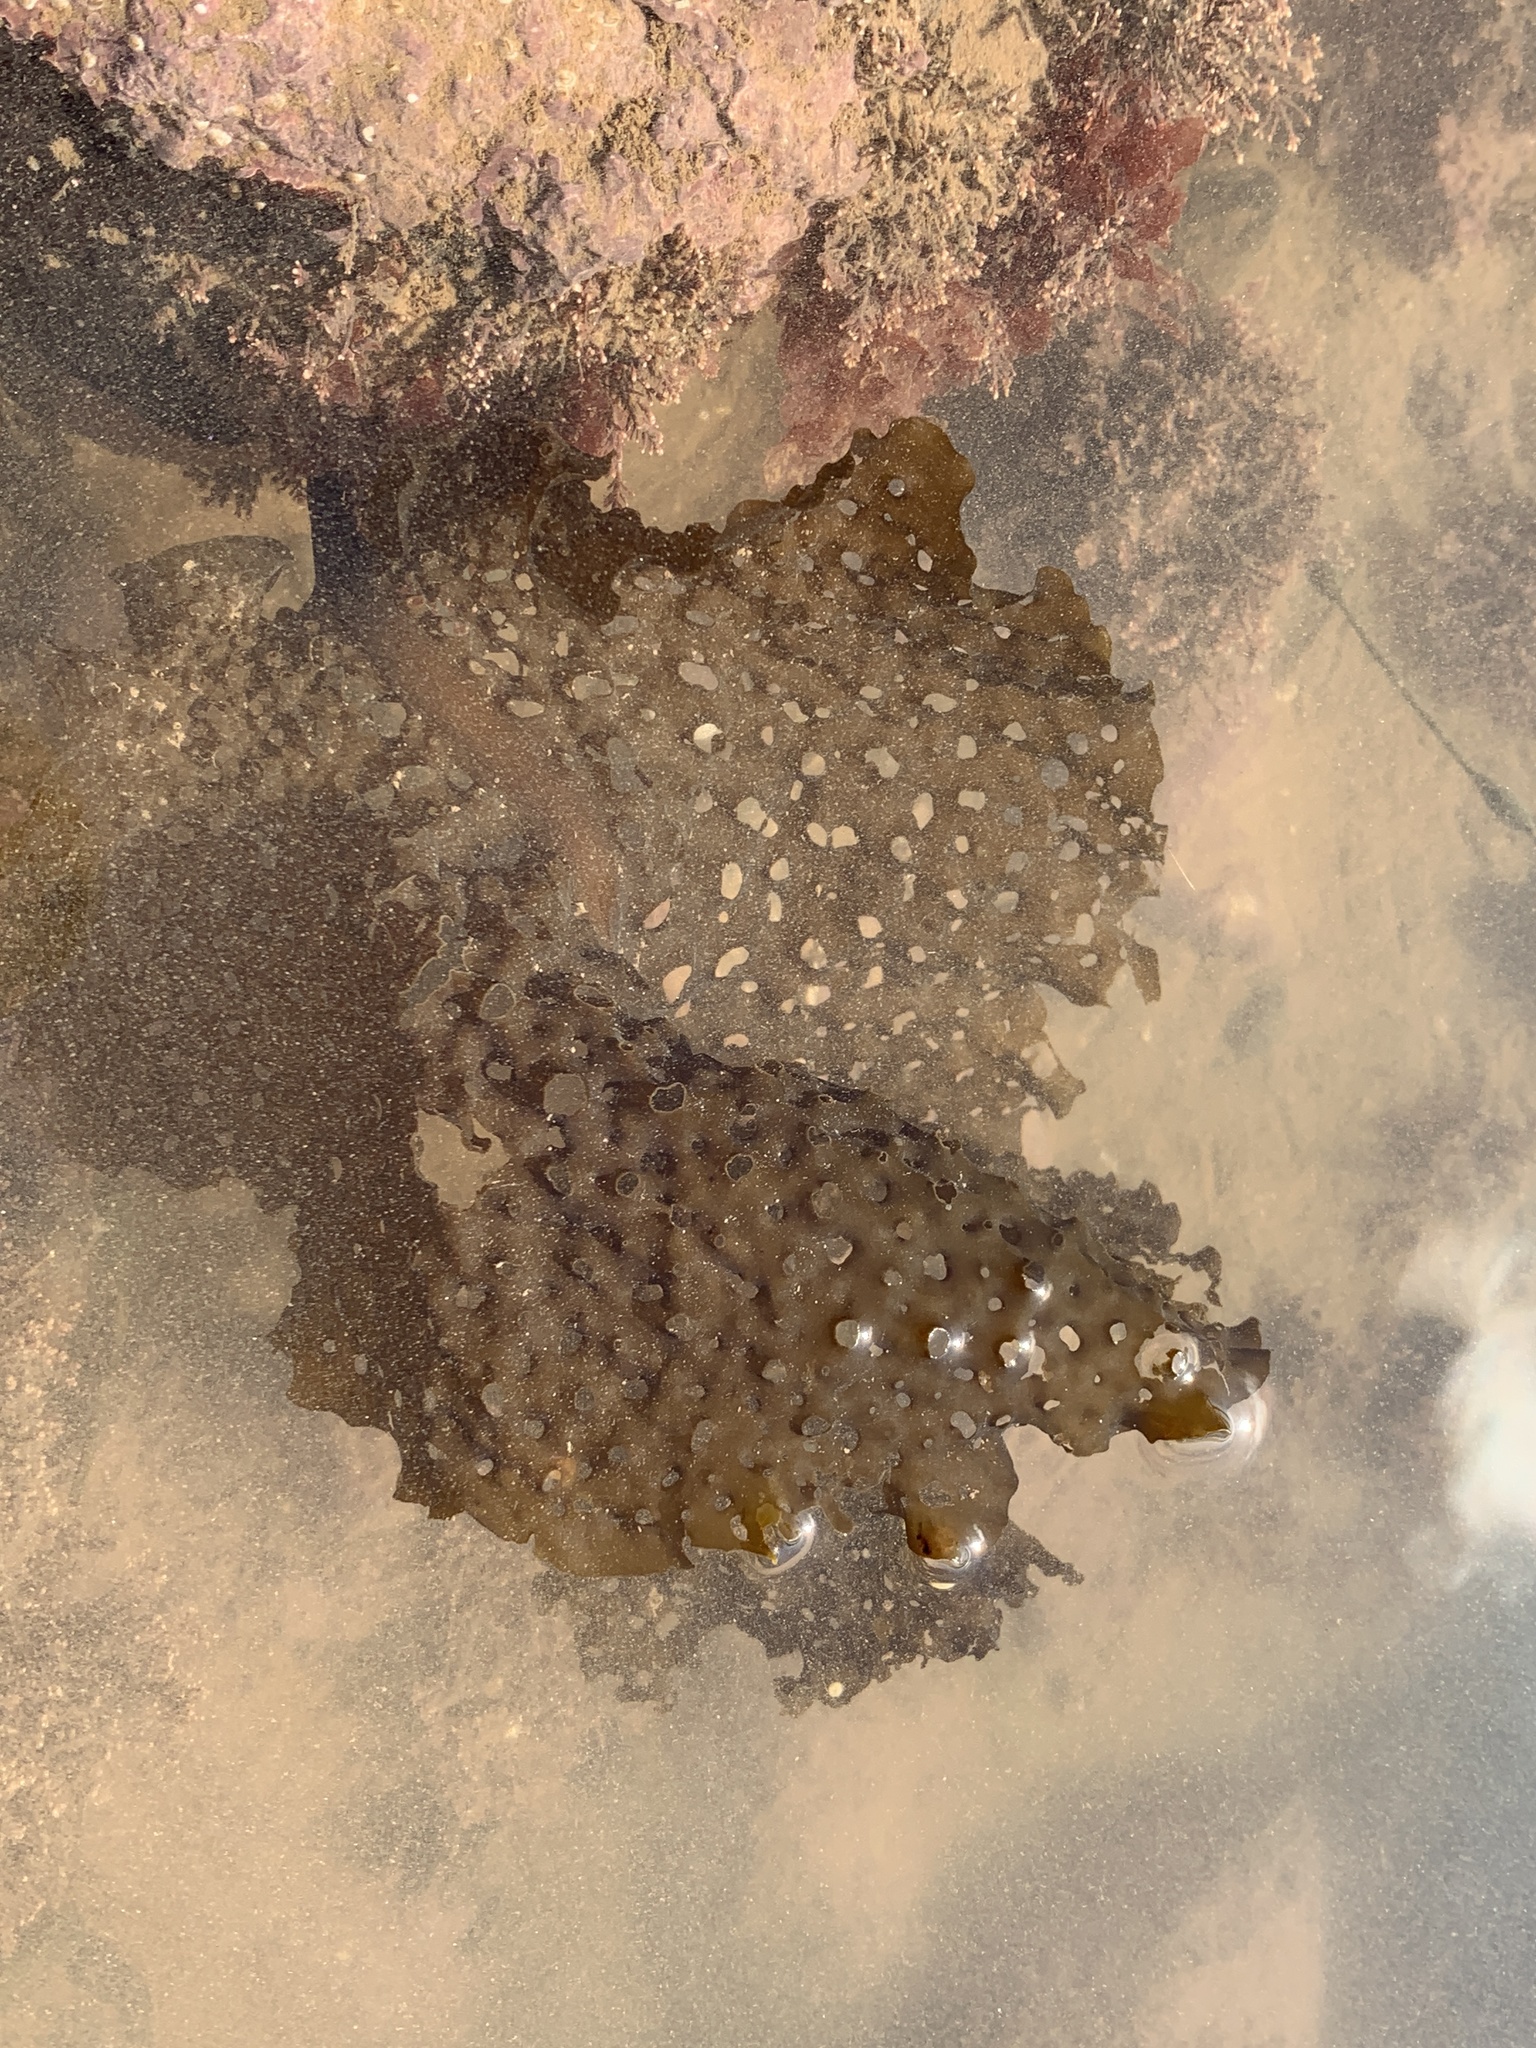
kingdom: Chromista
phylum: Ochrophyta
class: Phaeophyceae
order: Laminariales
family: Costariaceae
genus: Agarum
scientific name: Agarum clathratum
